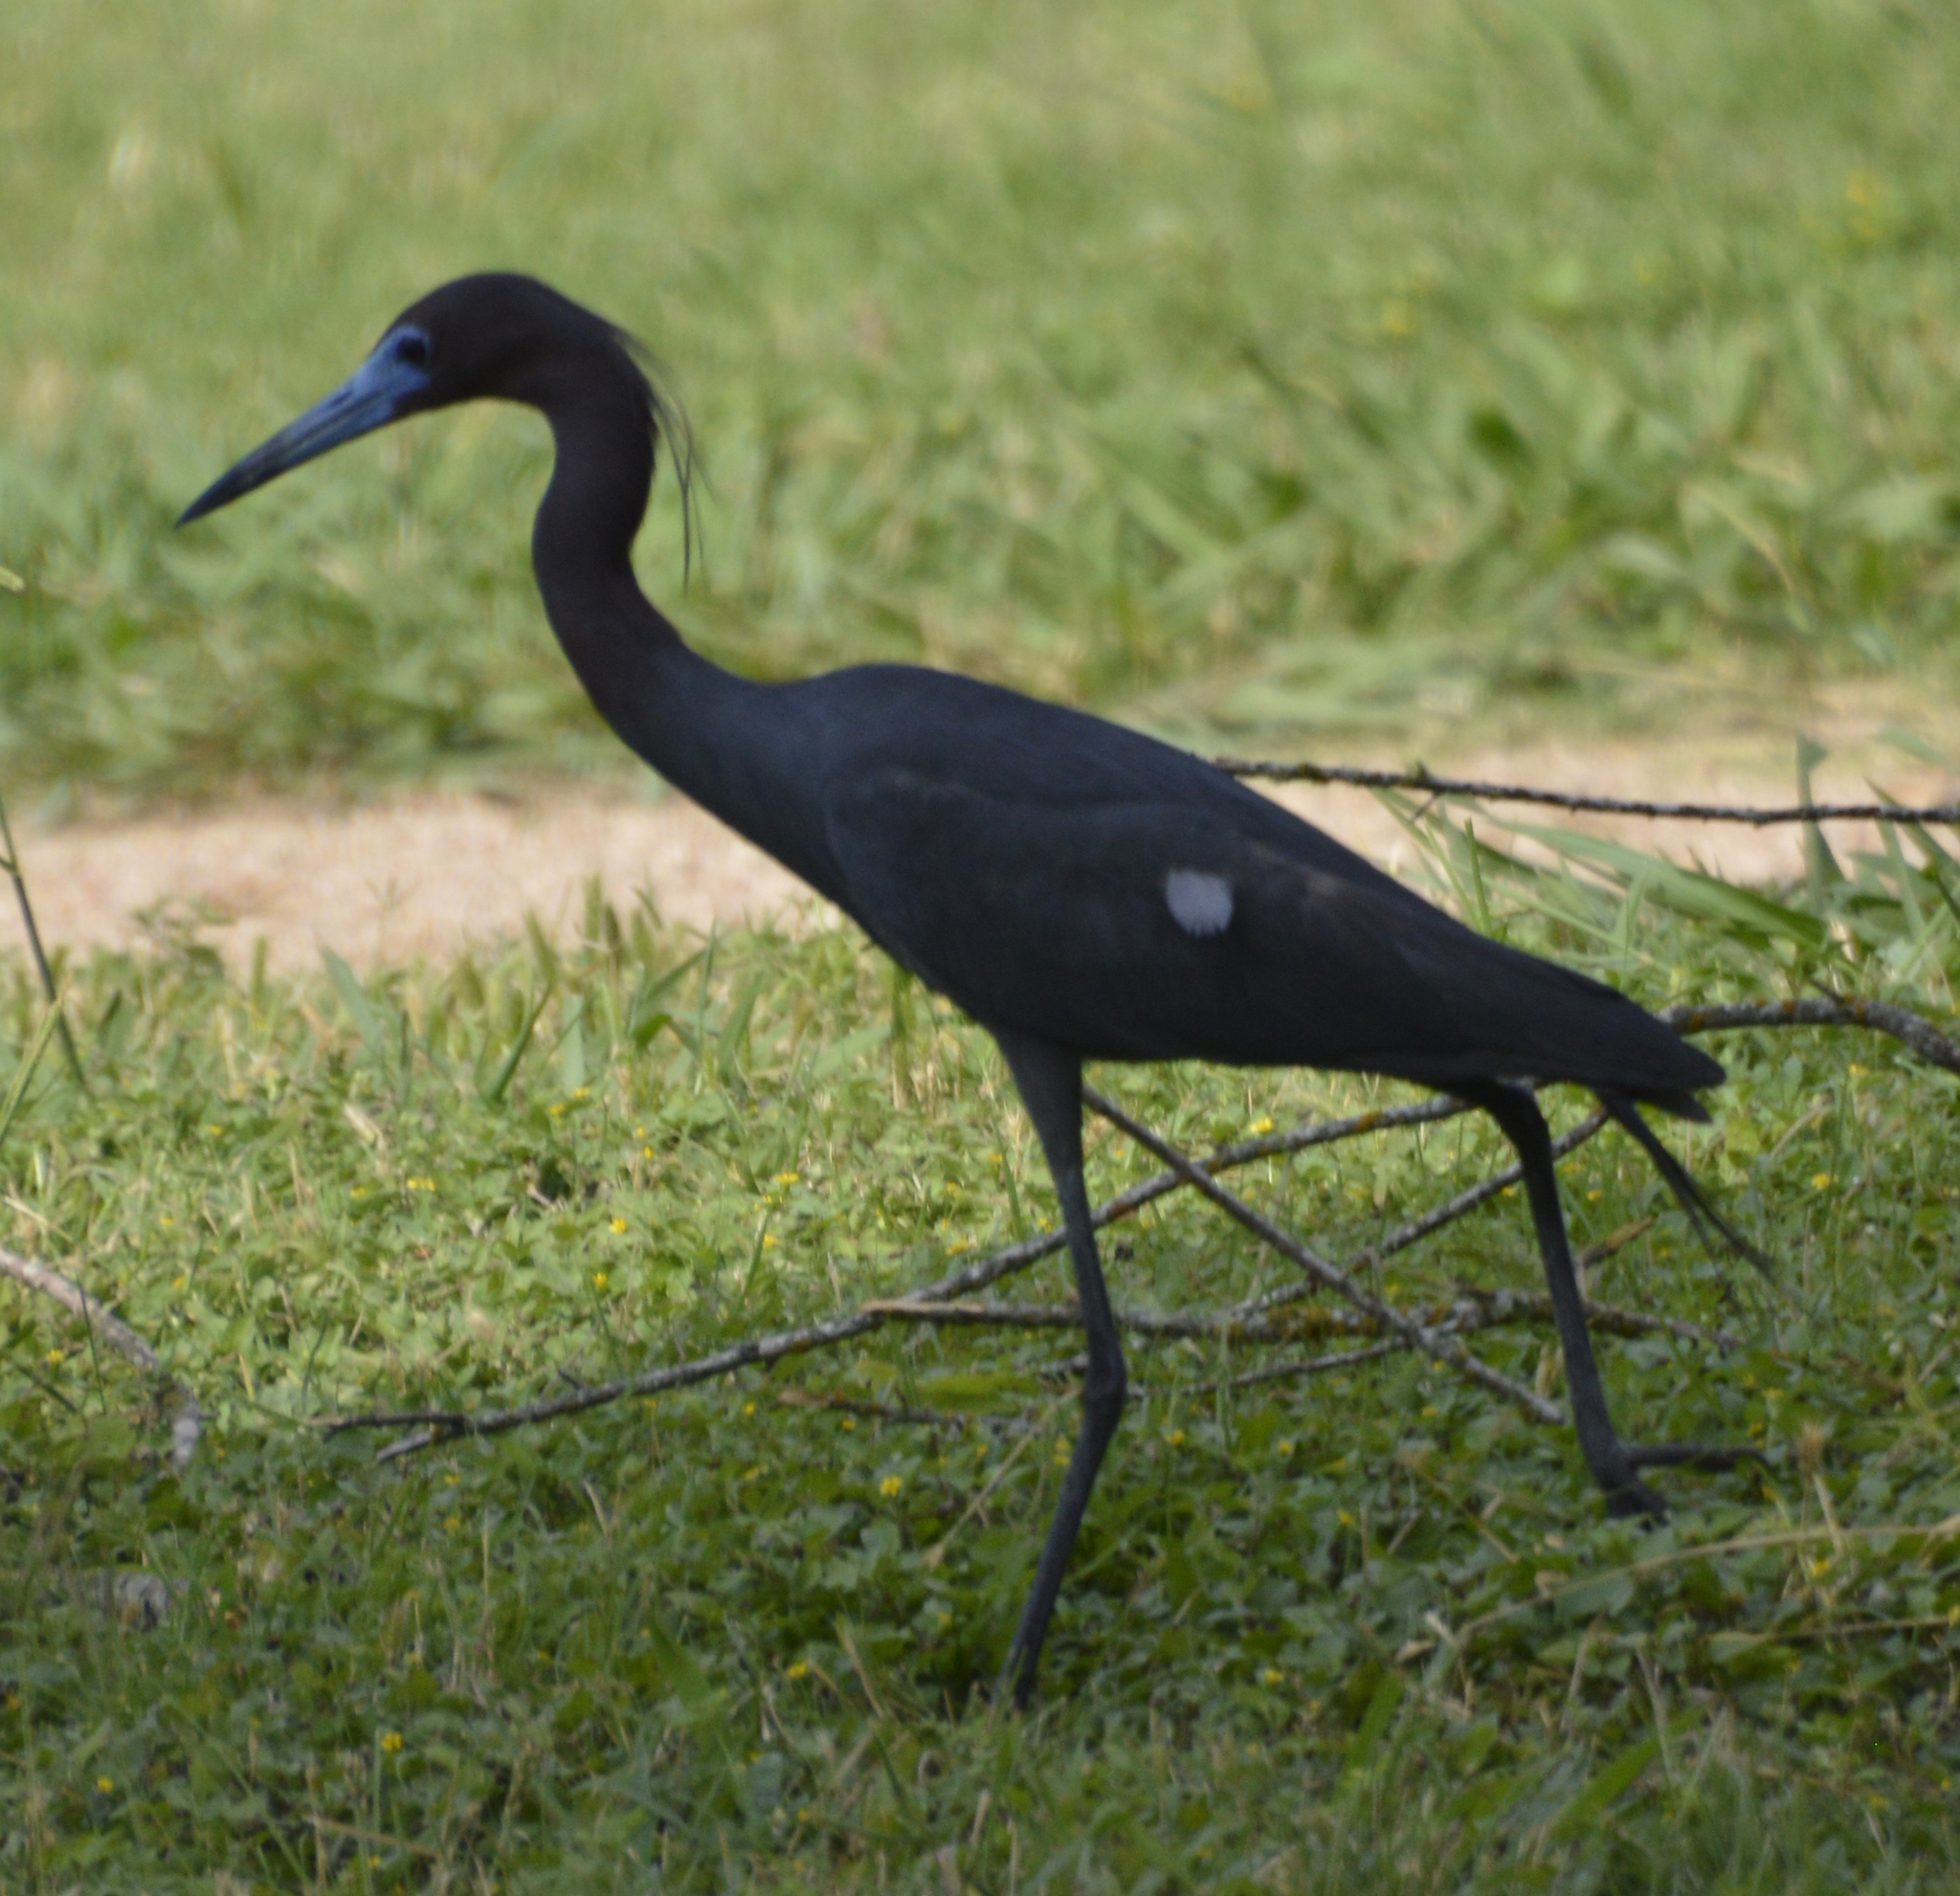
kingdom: Animalia
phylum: Chordata
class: Aves
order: Pelecaniformes
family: Ardeidae
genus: Egretta
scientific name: Egretta caerulea
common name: Little blue heron
